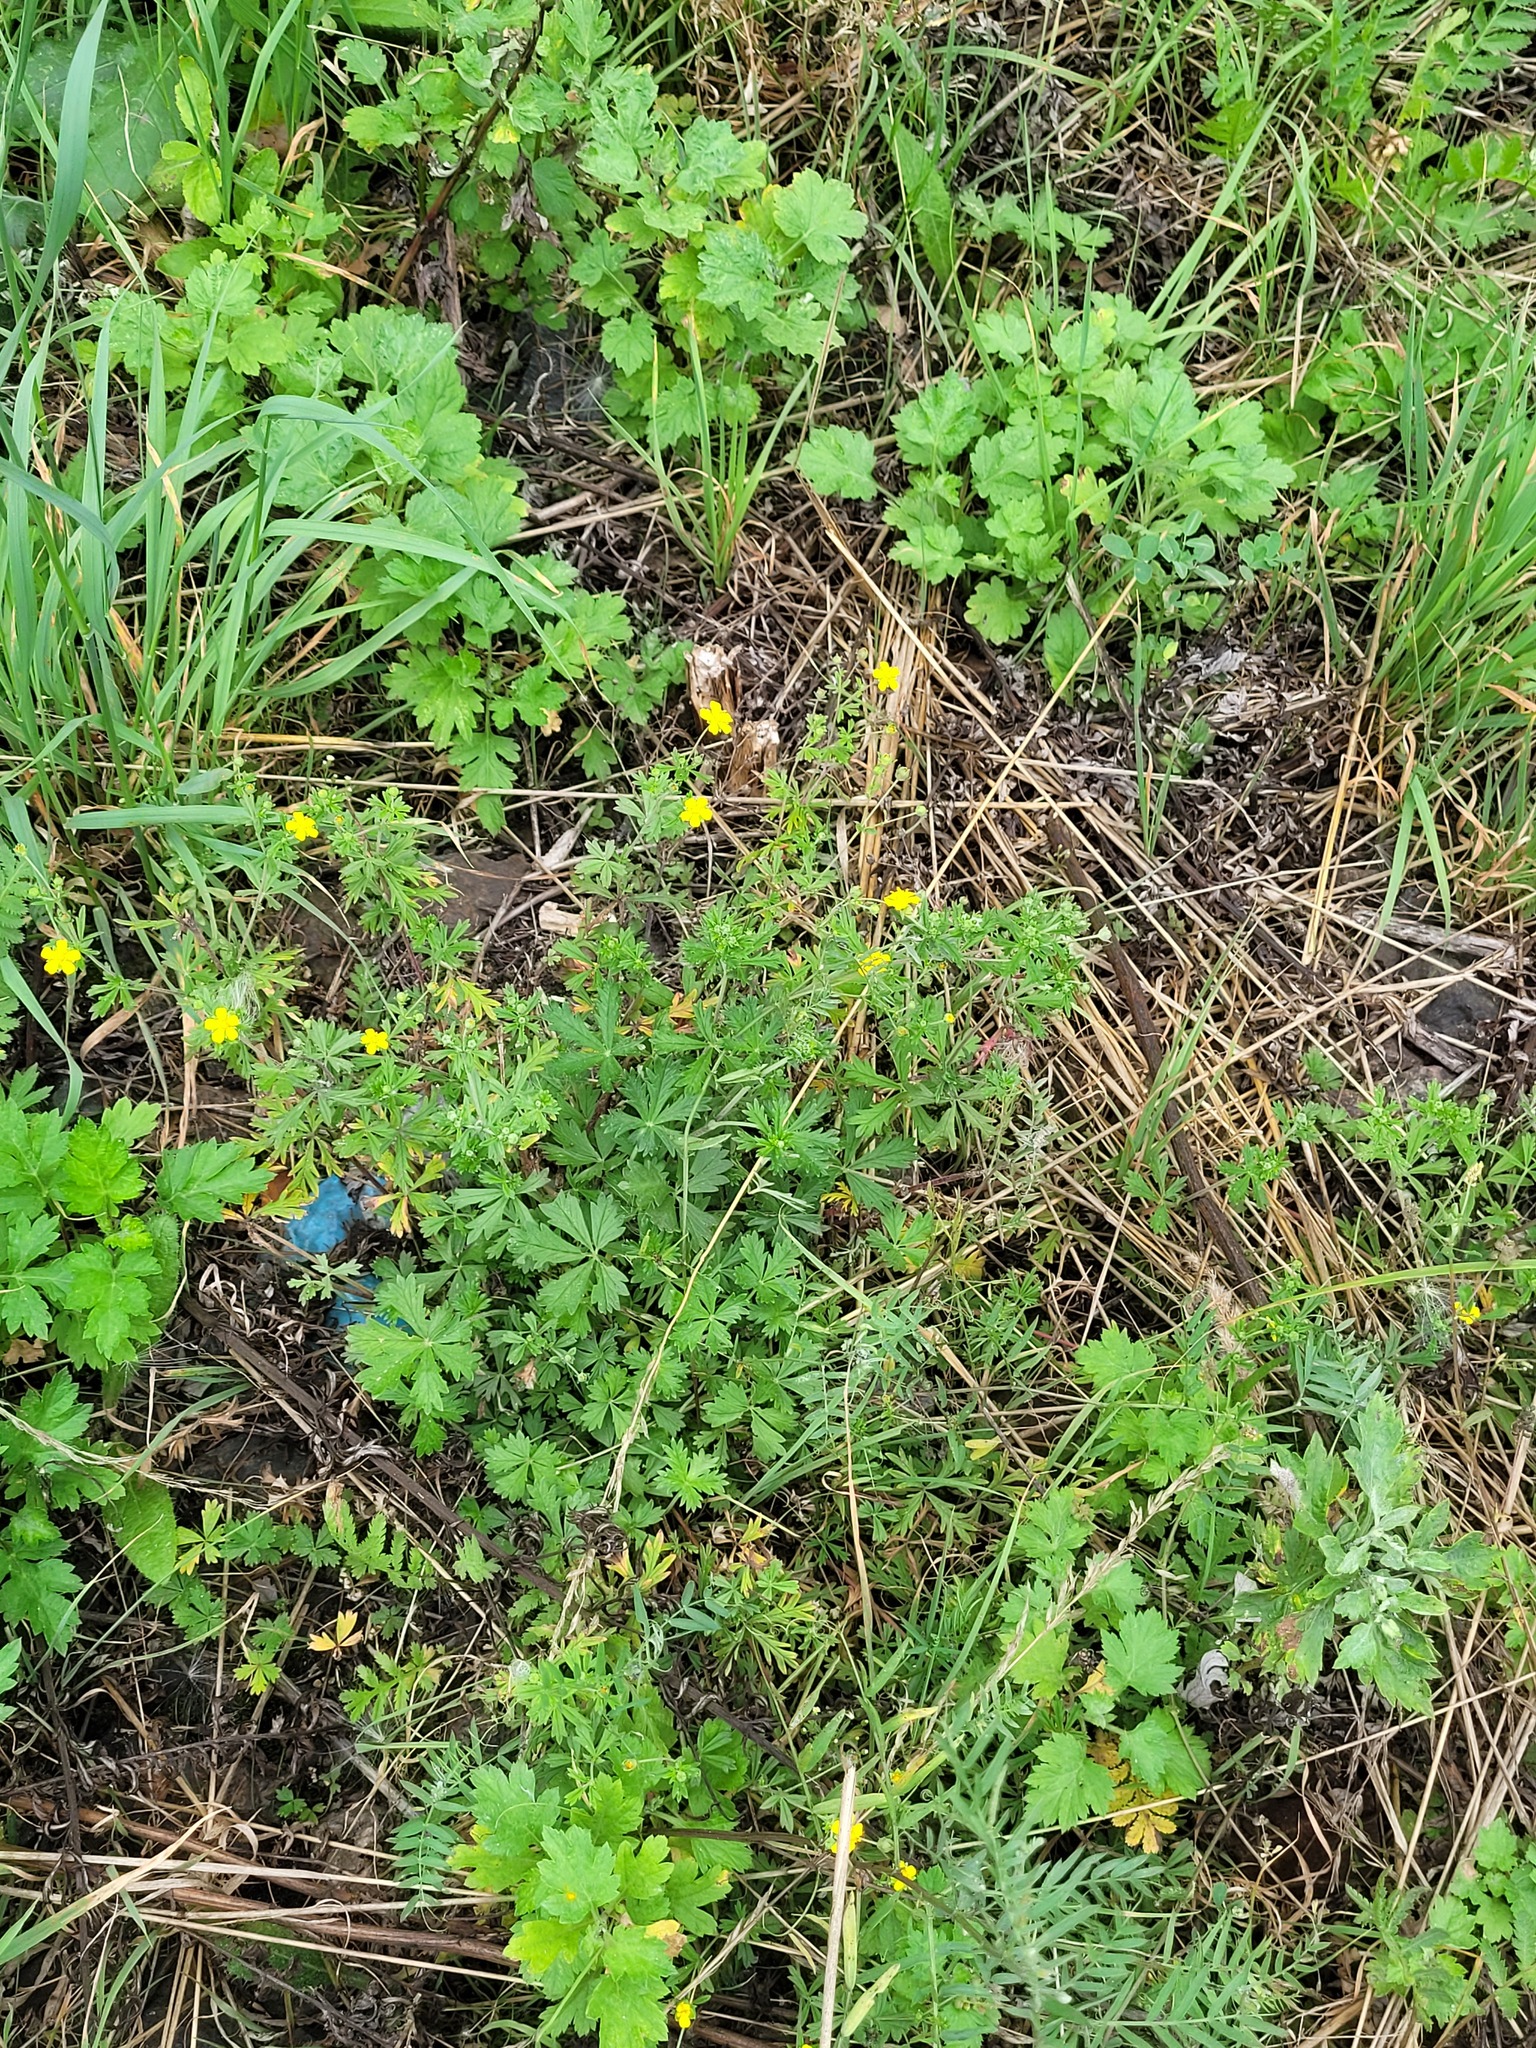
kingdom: Plantae
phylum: Tracheophyta
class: Magnoliopsida
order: Rosales
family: Rosaceae
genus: Potentilla
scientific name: Potentilla argentea
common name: Hoary cinquefoil
